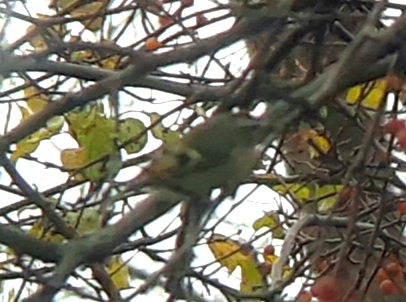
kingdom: Animalia
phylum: Chordata
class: Aves
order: Passeriformes
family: Regulidae
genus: Regulus
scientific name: Regulus satrapa
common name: Golden-crowned kinglet
